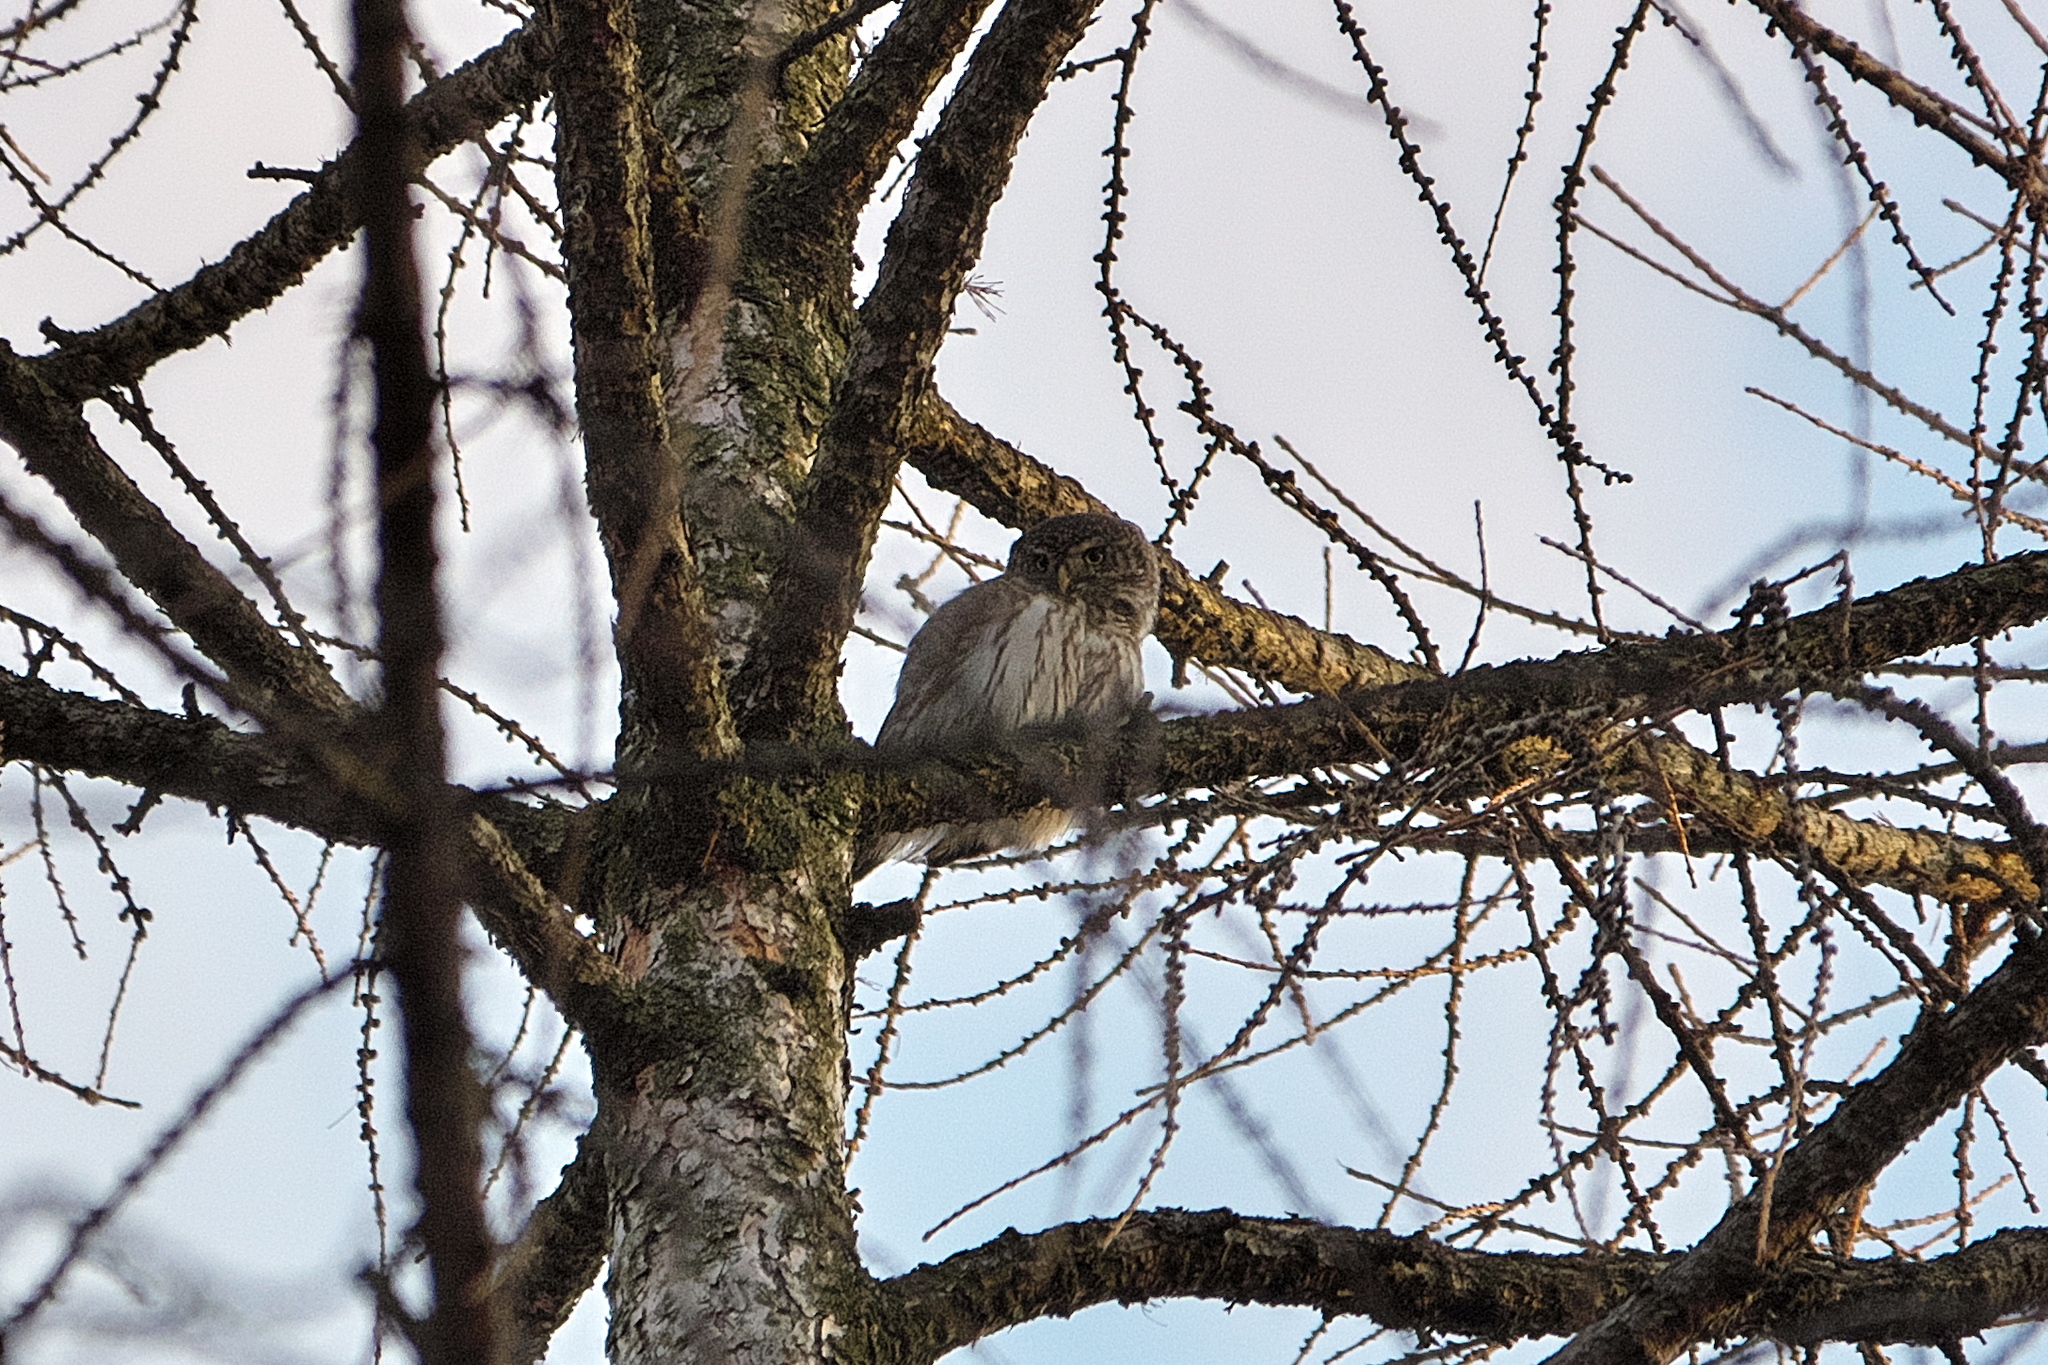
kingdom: Animalia
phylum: Chordata
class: Aves
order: Strigiformes
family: Strigidae
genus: Glaucidium
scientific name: Glaucidium passerinum
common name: Eurasian pygmy owl
